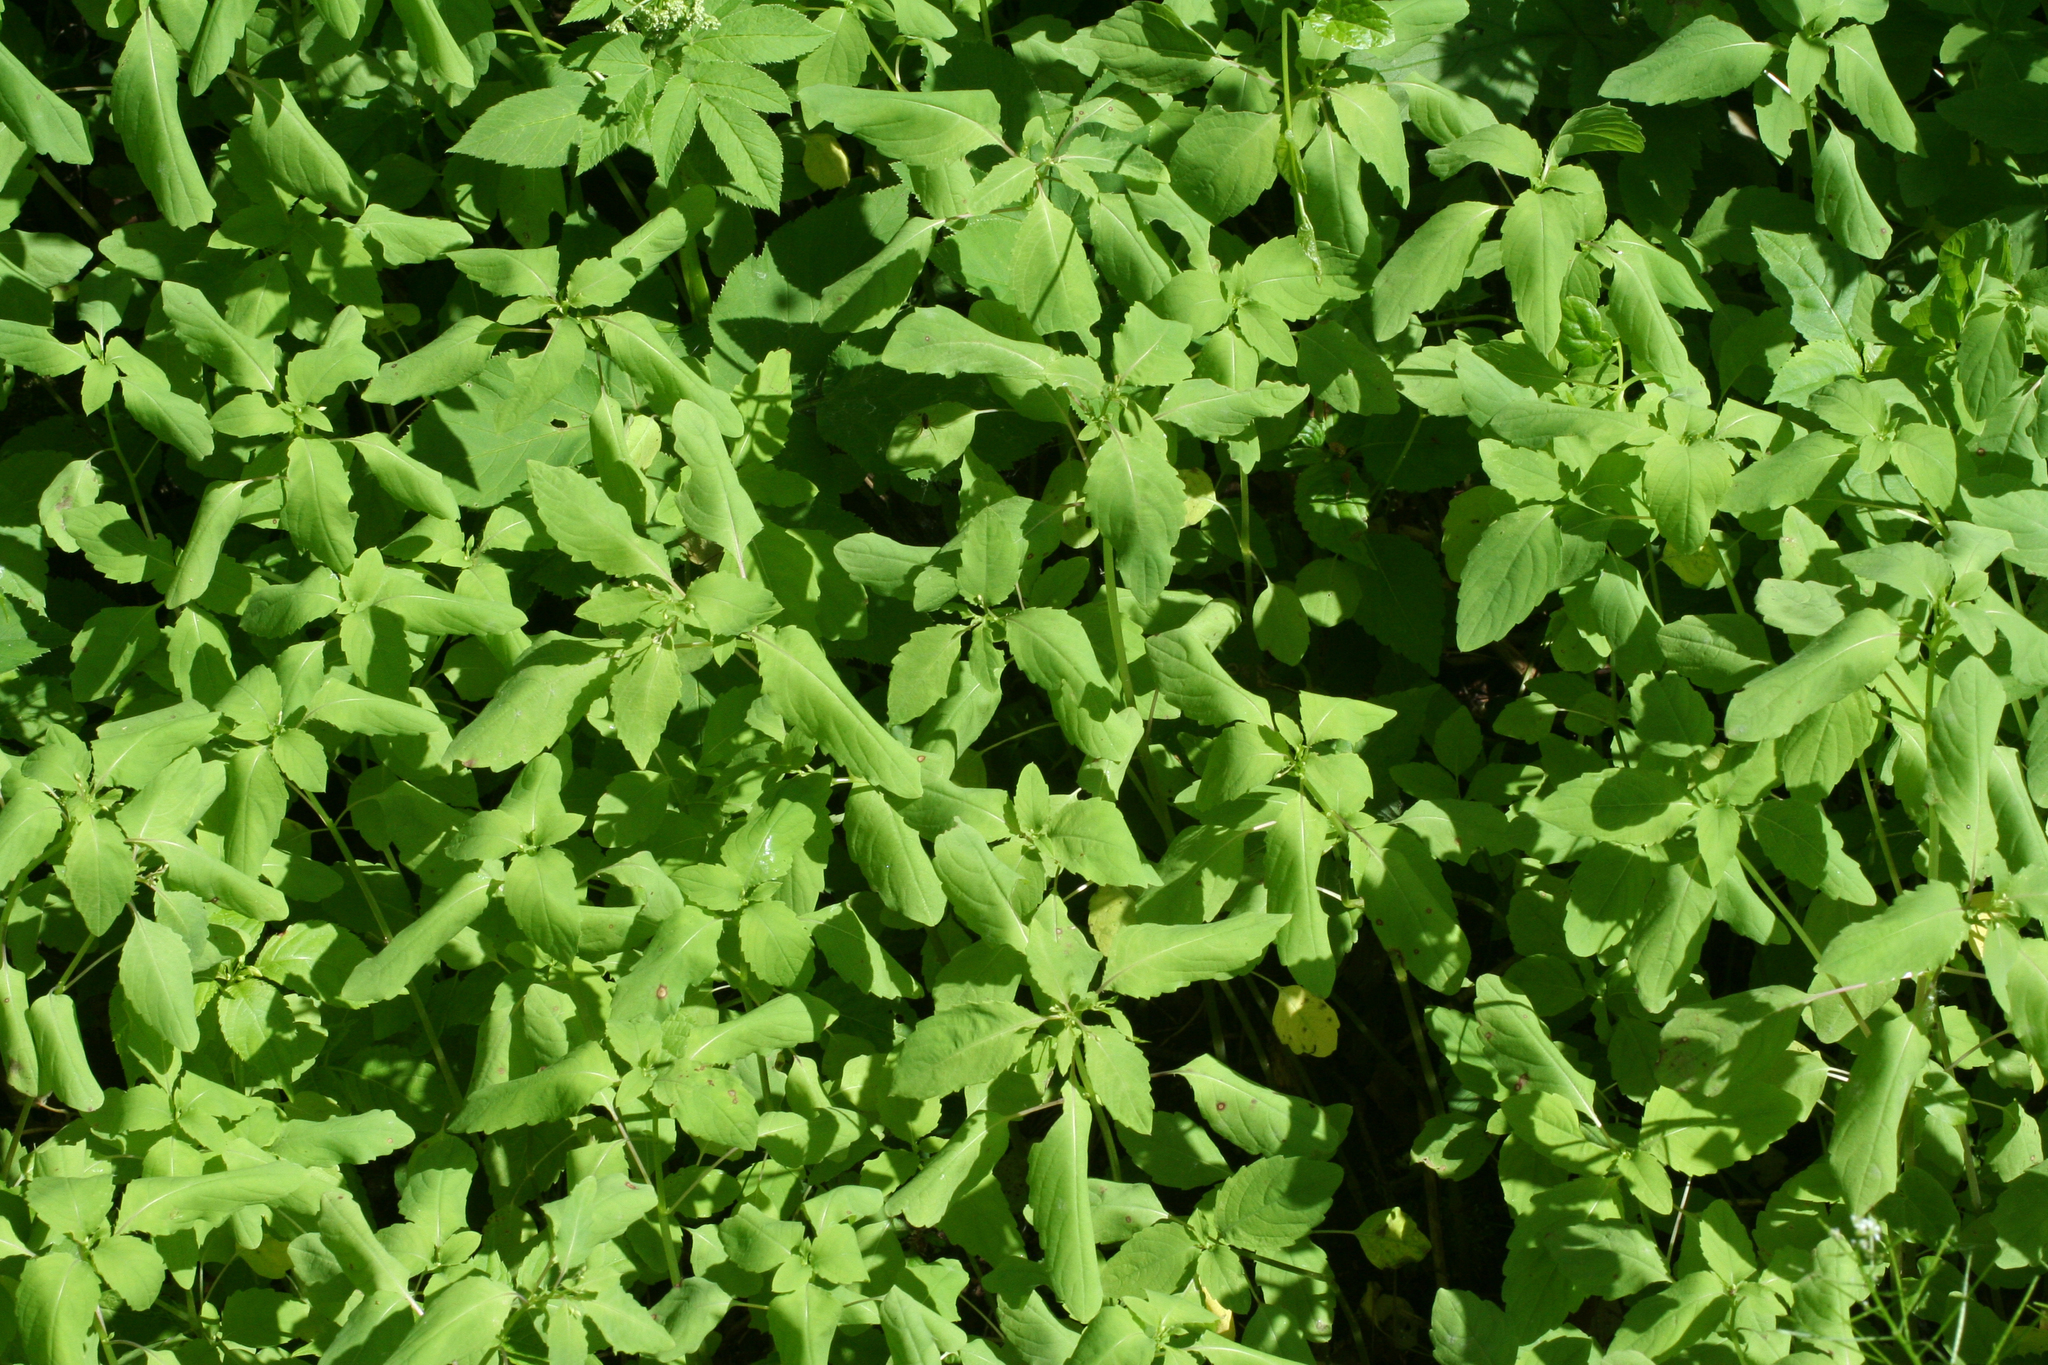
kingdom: Plantae
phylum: Tracheophyta
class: Magnoliopsida
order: Ericales
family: Balsaminaceae
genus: Impatiens
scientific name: Impatiens parviflora
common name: Small balsam
